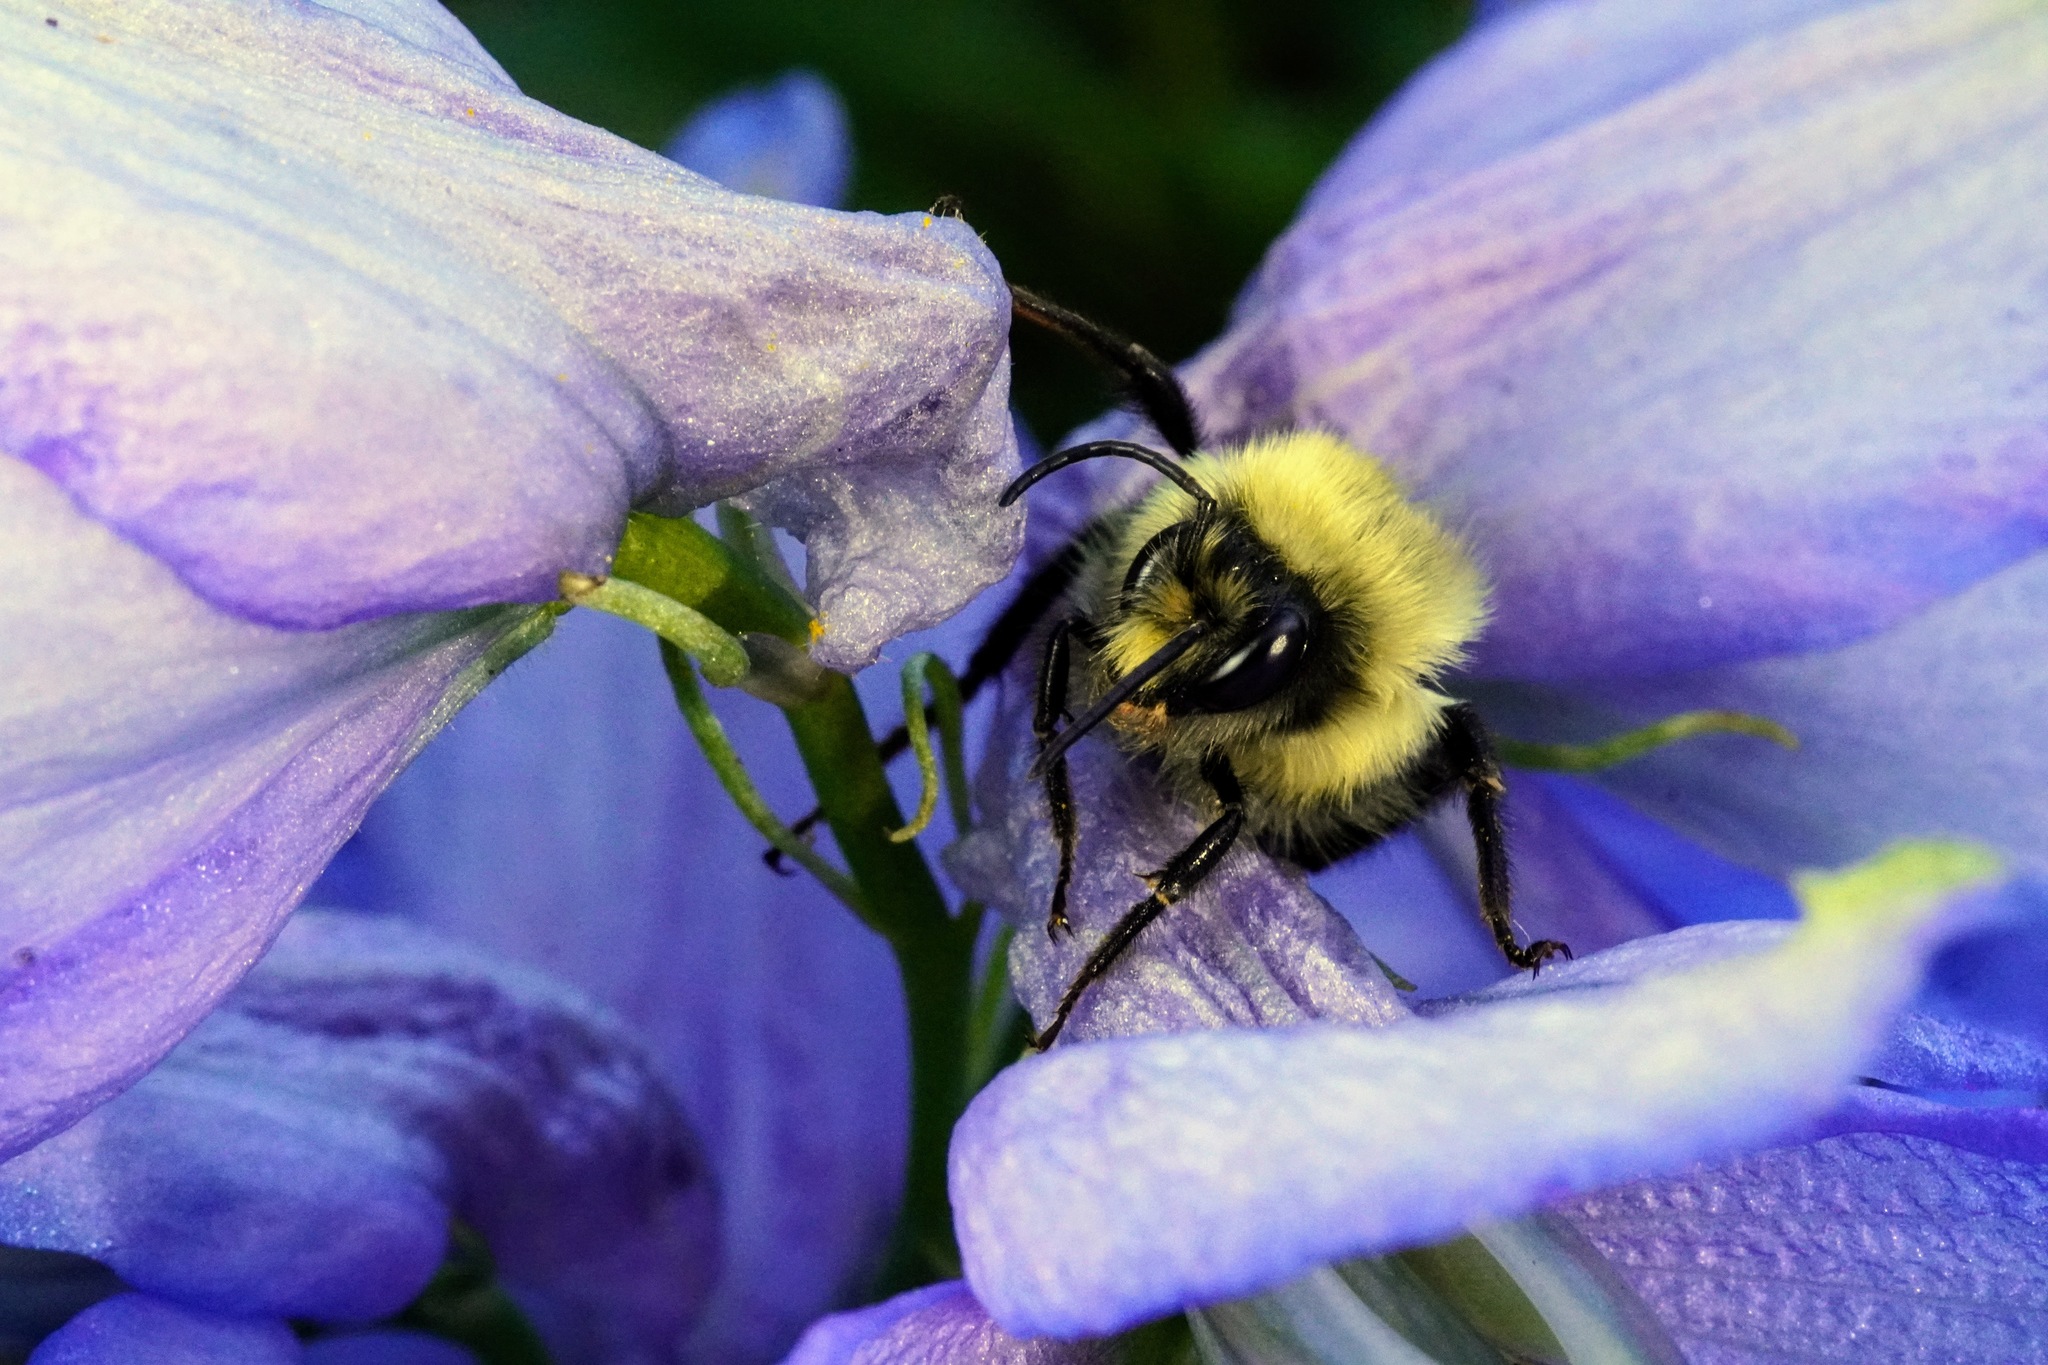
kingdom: Animalia
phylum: Arthropoda
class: Insecta
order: Hymenoptera
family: Apidae
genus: Bombus
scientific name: Bombus impatiens
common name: Common eastern bumble bee
